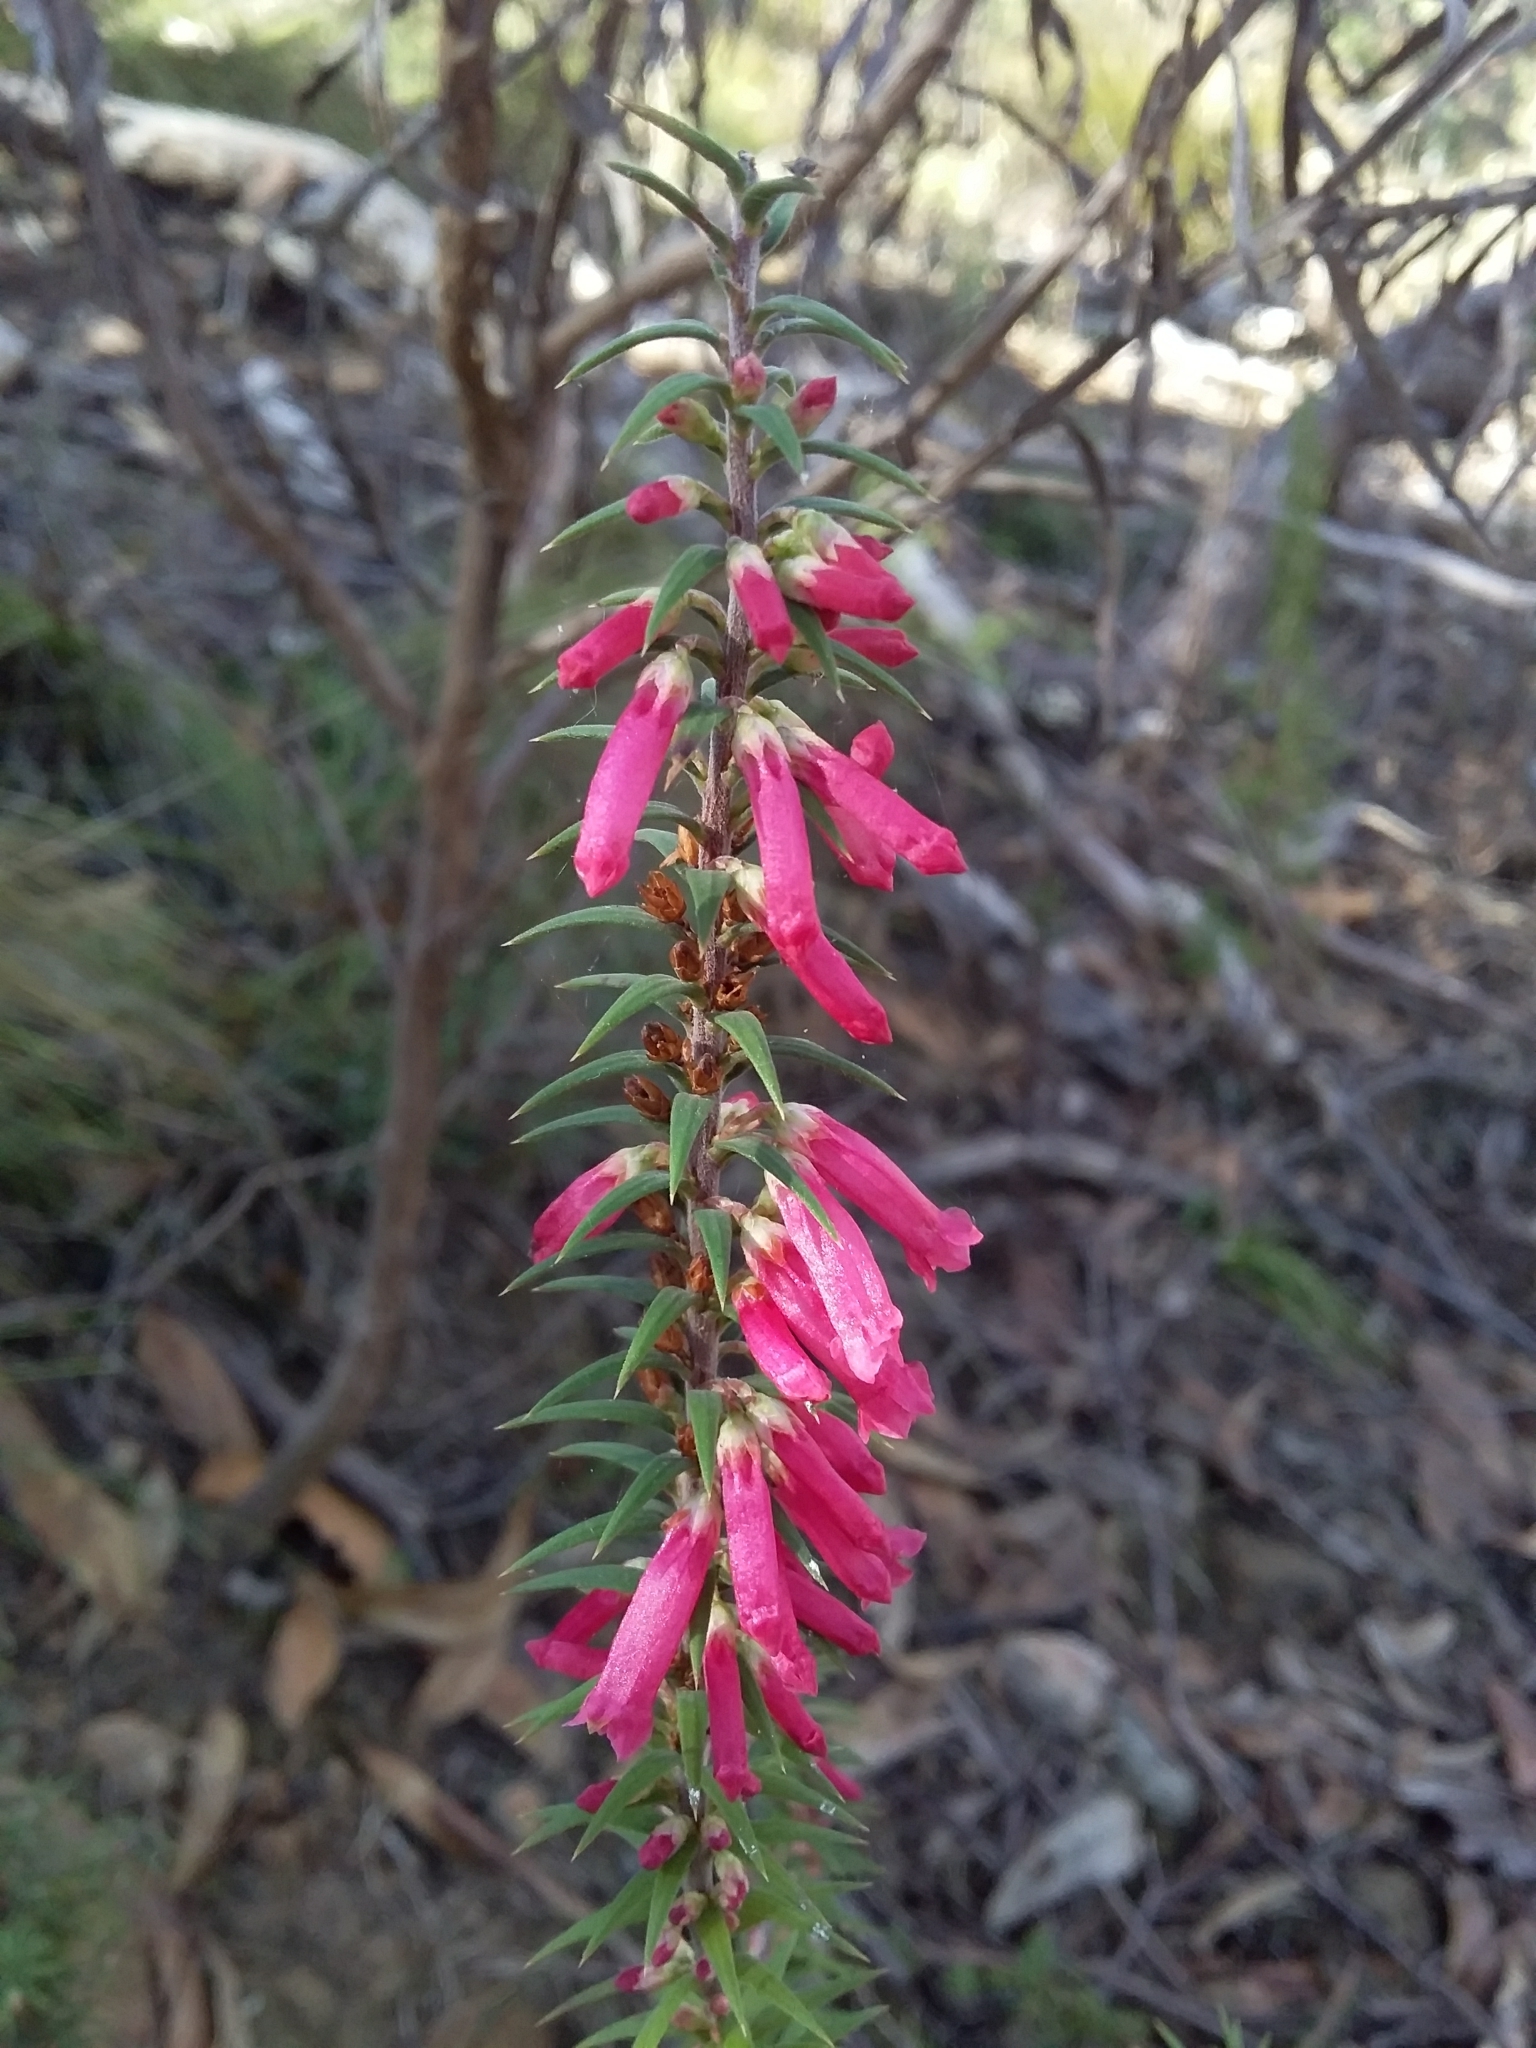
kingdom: Plantae
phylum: Tracheophyta
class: Magnoliopsida
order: Ericales
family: Ericaceae
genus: Epacris
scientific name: Epacris impressa
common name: Common-heath
